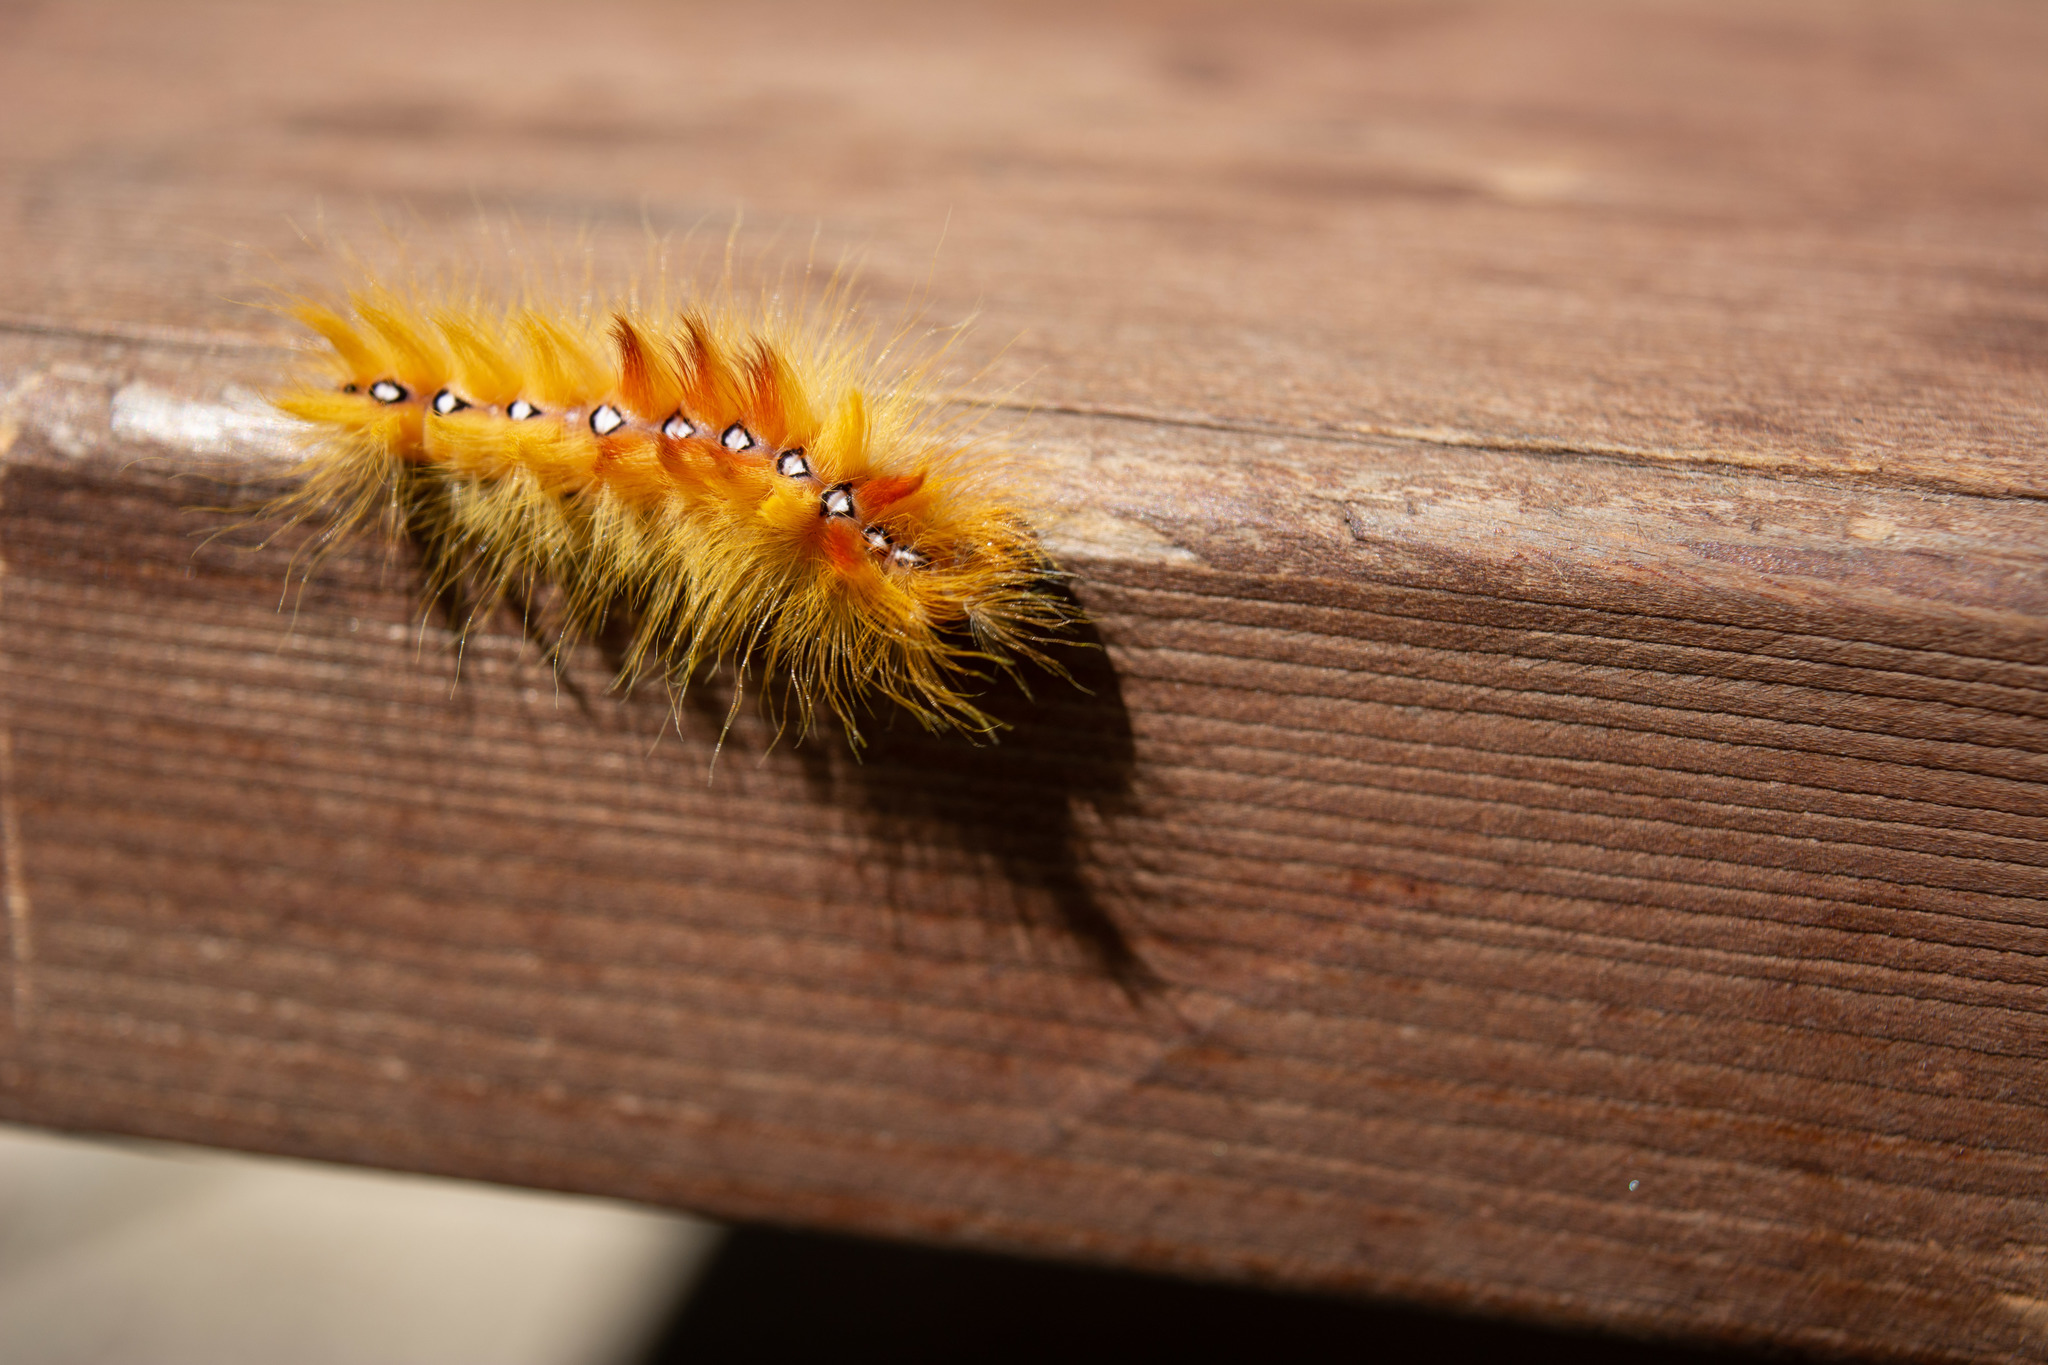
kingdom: Animalia
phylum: Arthropoda
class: Insecta
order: Lepidoptera
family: Noctuidae
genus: Acronicta
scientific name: Acronicta aceris
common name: Sycamore
